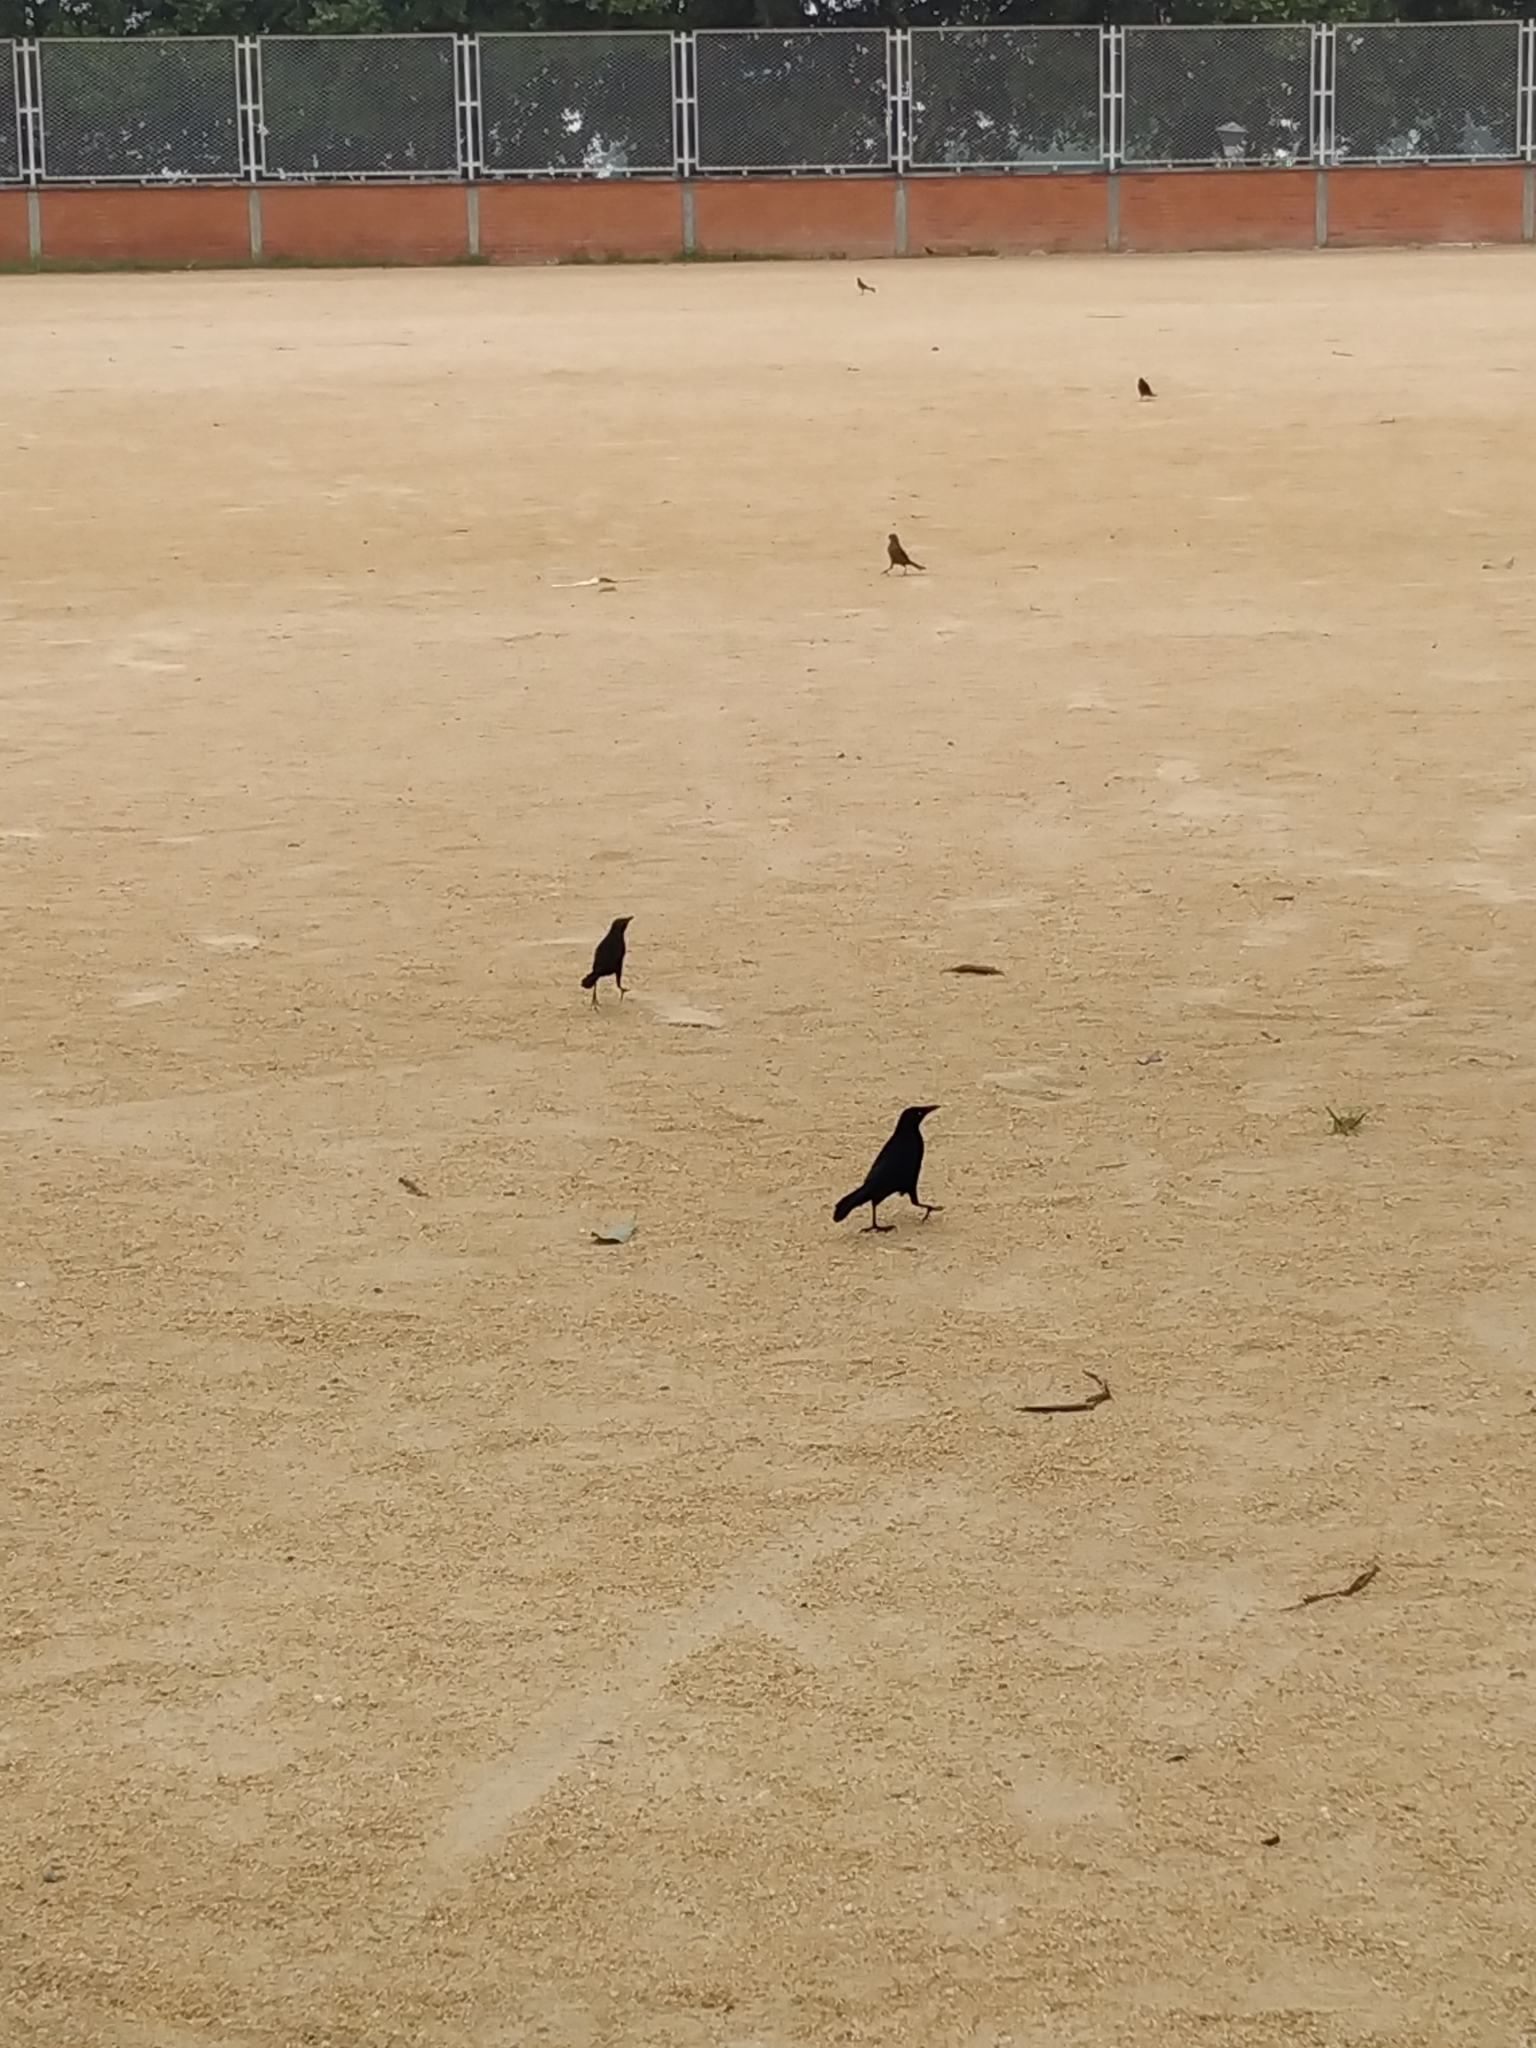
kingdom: Animalia
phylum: Chordata
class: Aves
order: Passeriformes
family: Icteridae
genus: Quiscalus
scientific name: Quiscalus lugubris
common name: Carib grackle
